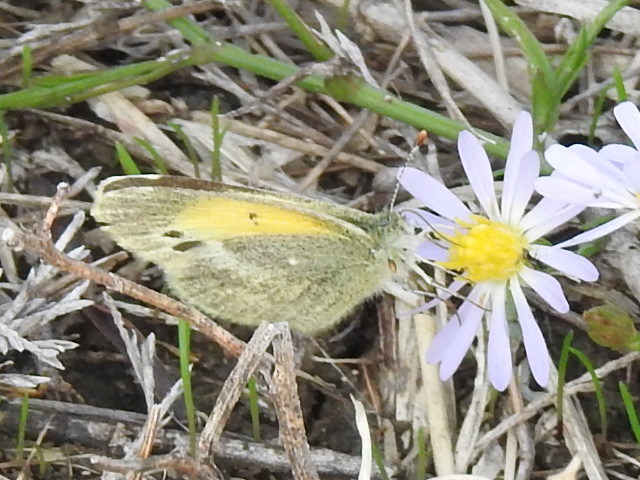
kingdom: Animalia
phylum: Arthropoda
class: Insecta
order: Lepidoptera
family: Pieridae
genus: Nathalis
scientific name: Nathalis iole
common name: Dainty sulphur
